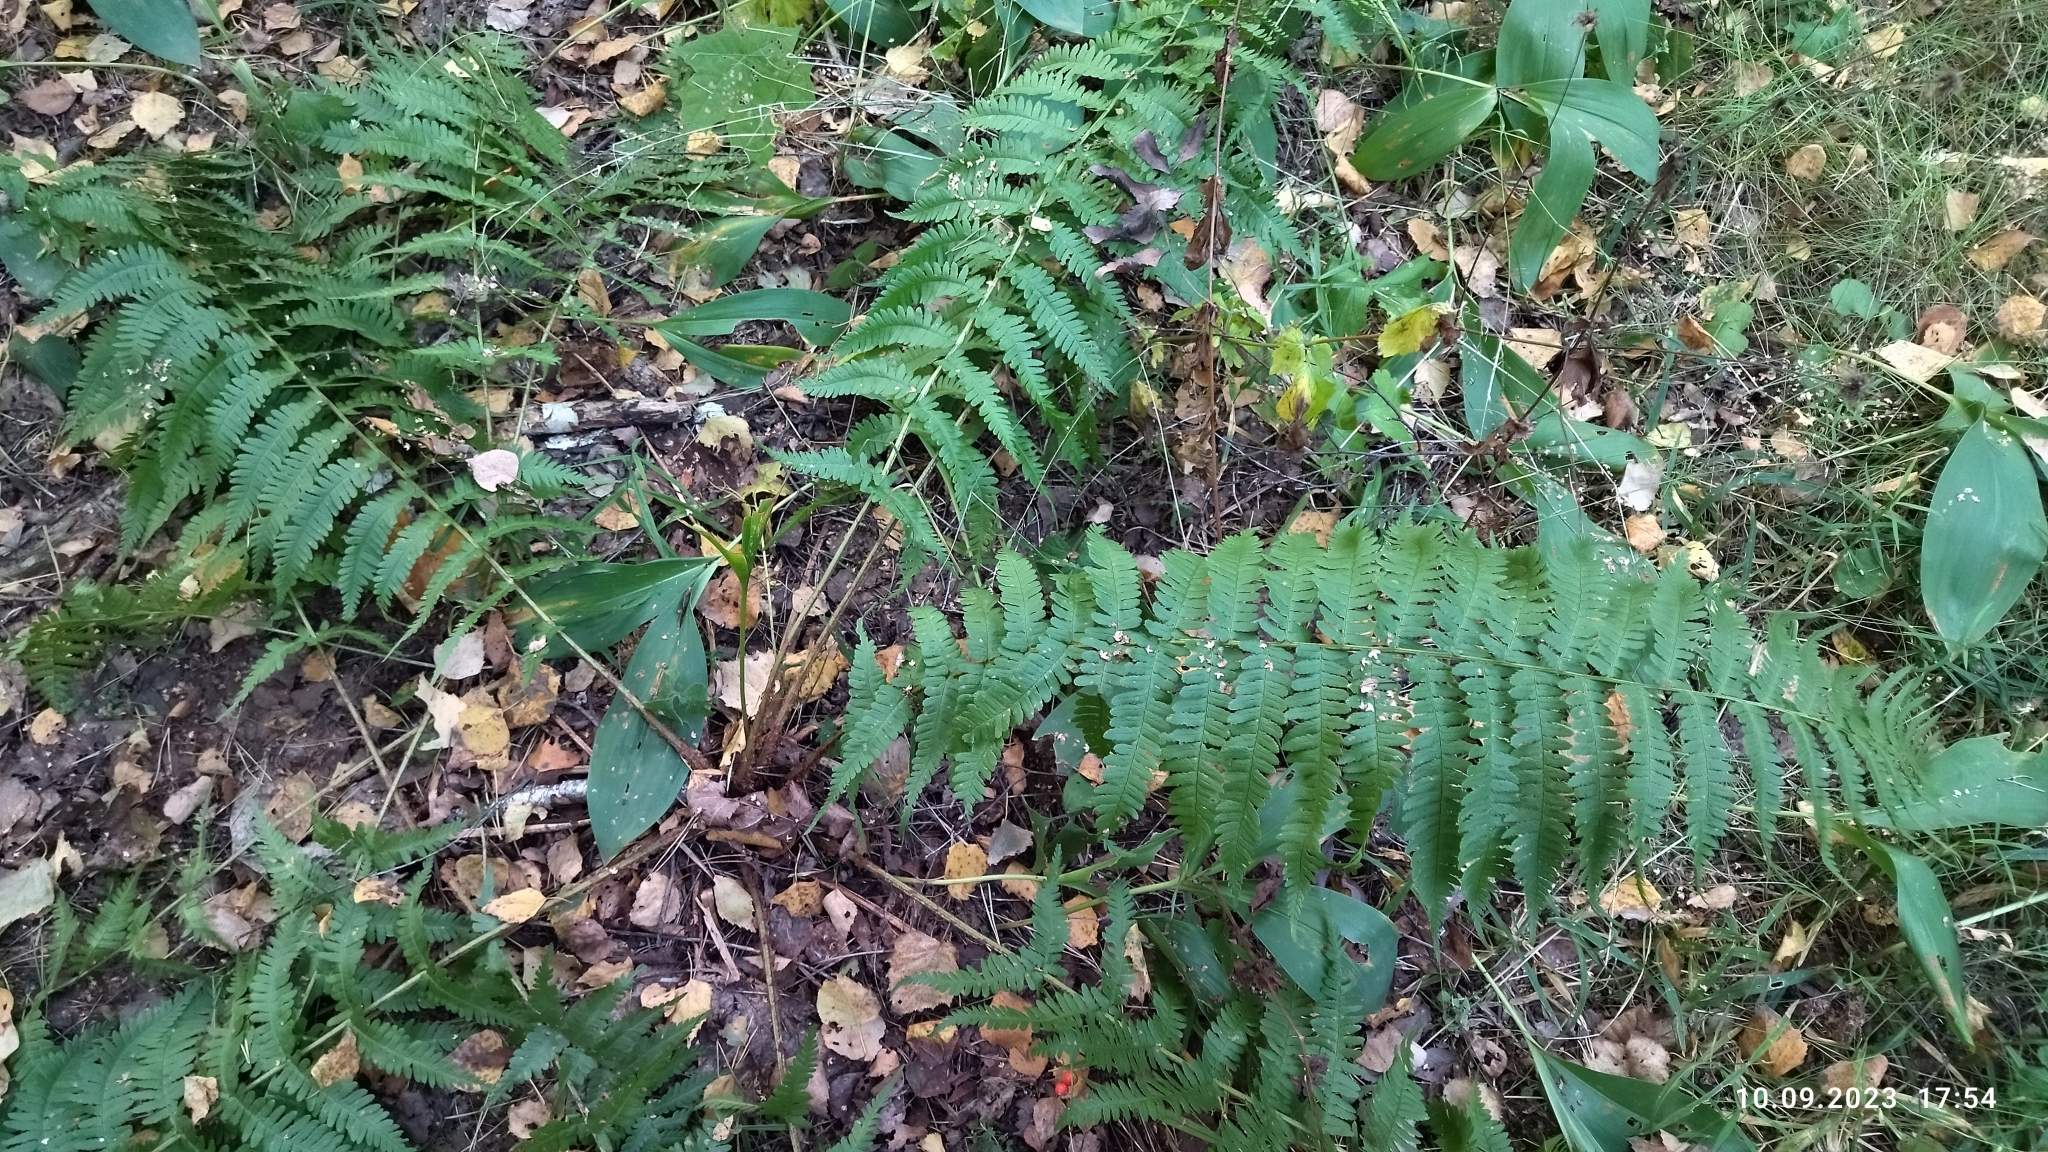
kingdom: Plantae
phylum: Tracheophyta
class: Polypodiopsida
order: Polypodiales
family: Dryopteridaceae
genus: Dryopteris
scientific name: Dryopteris filix-mas
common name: Male fern
